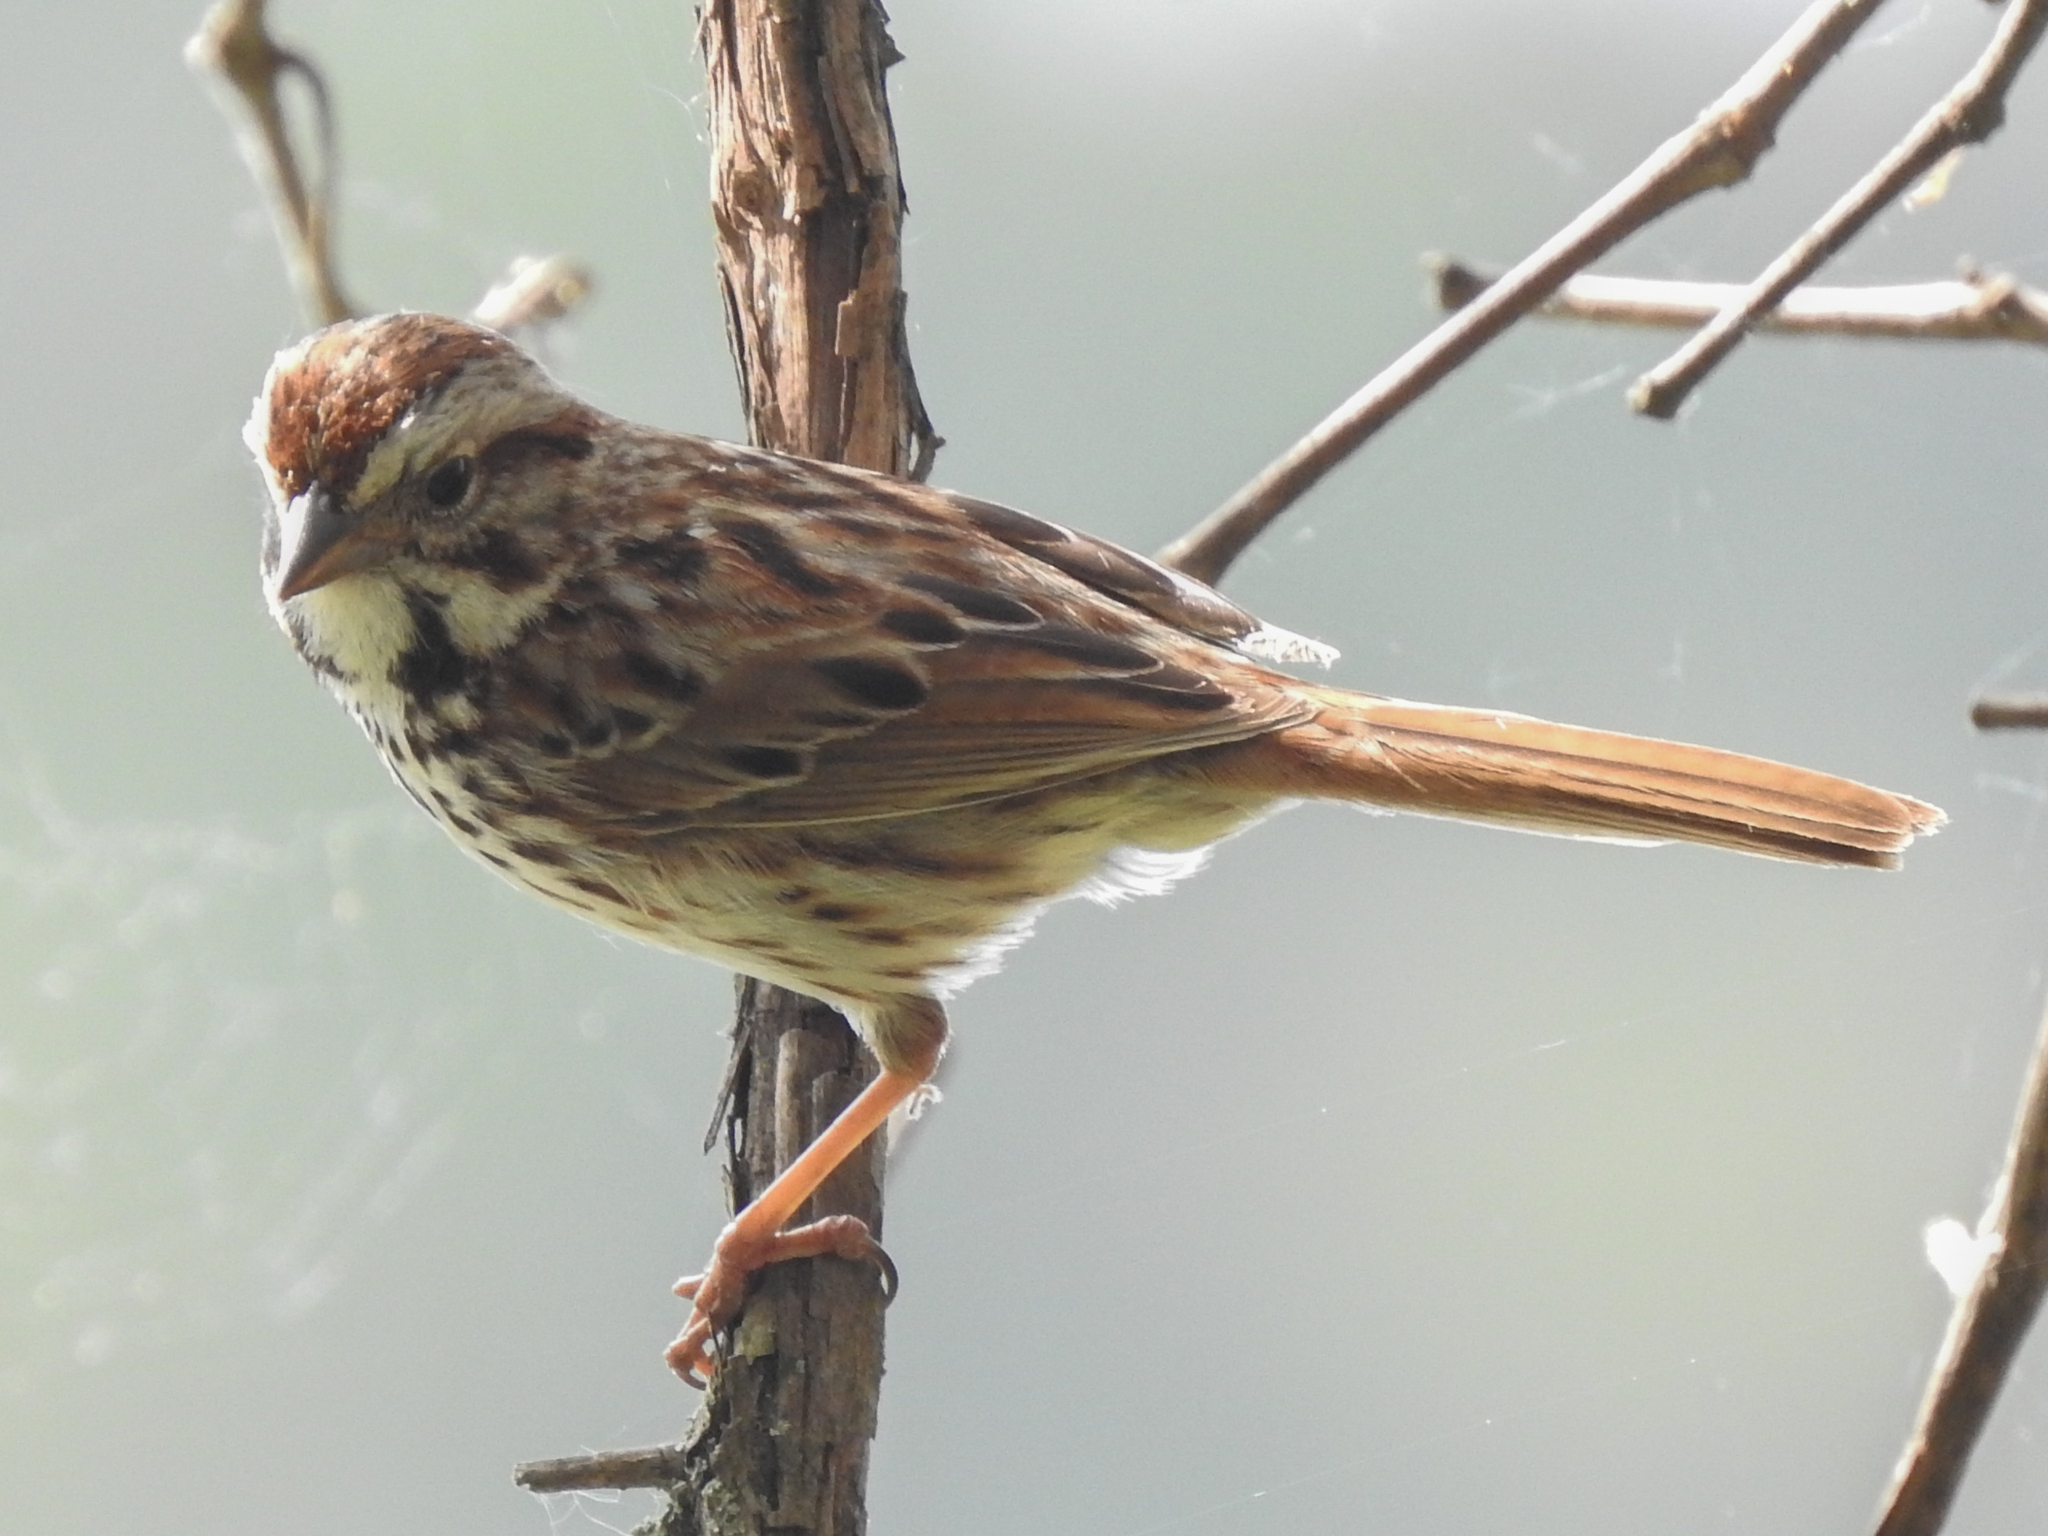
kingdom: Animalia
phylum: Chordata
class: Aves
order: Passeriformes
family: Passerellidae
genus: Melospiza
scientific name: Melospiza melodia
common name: Song sparrow
